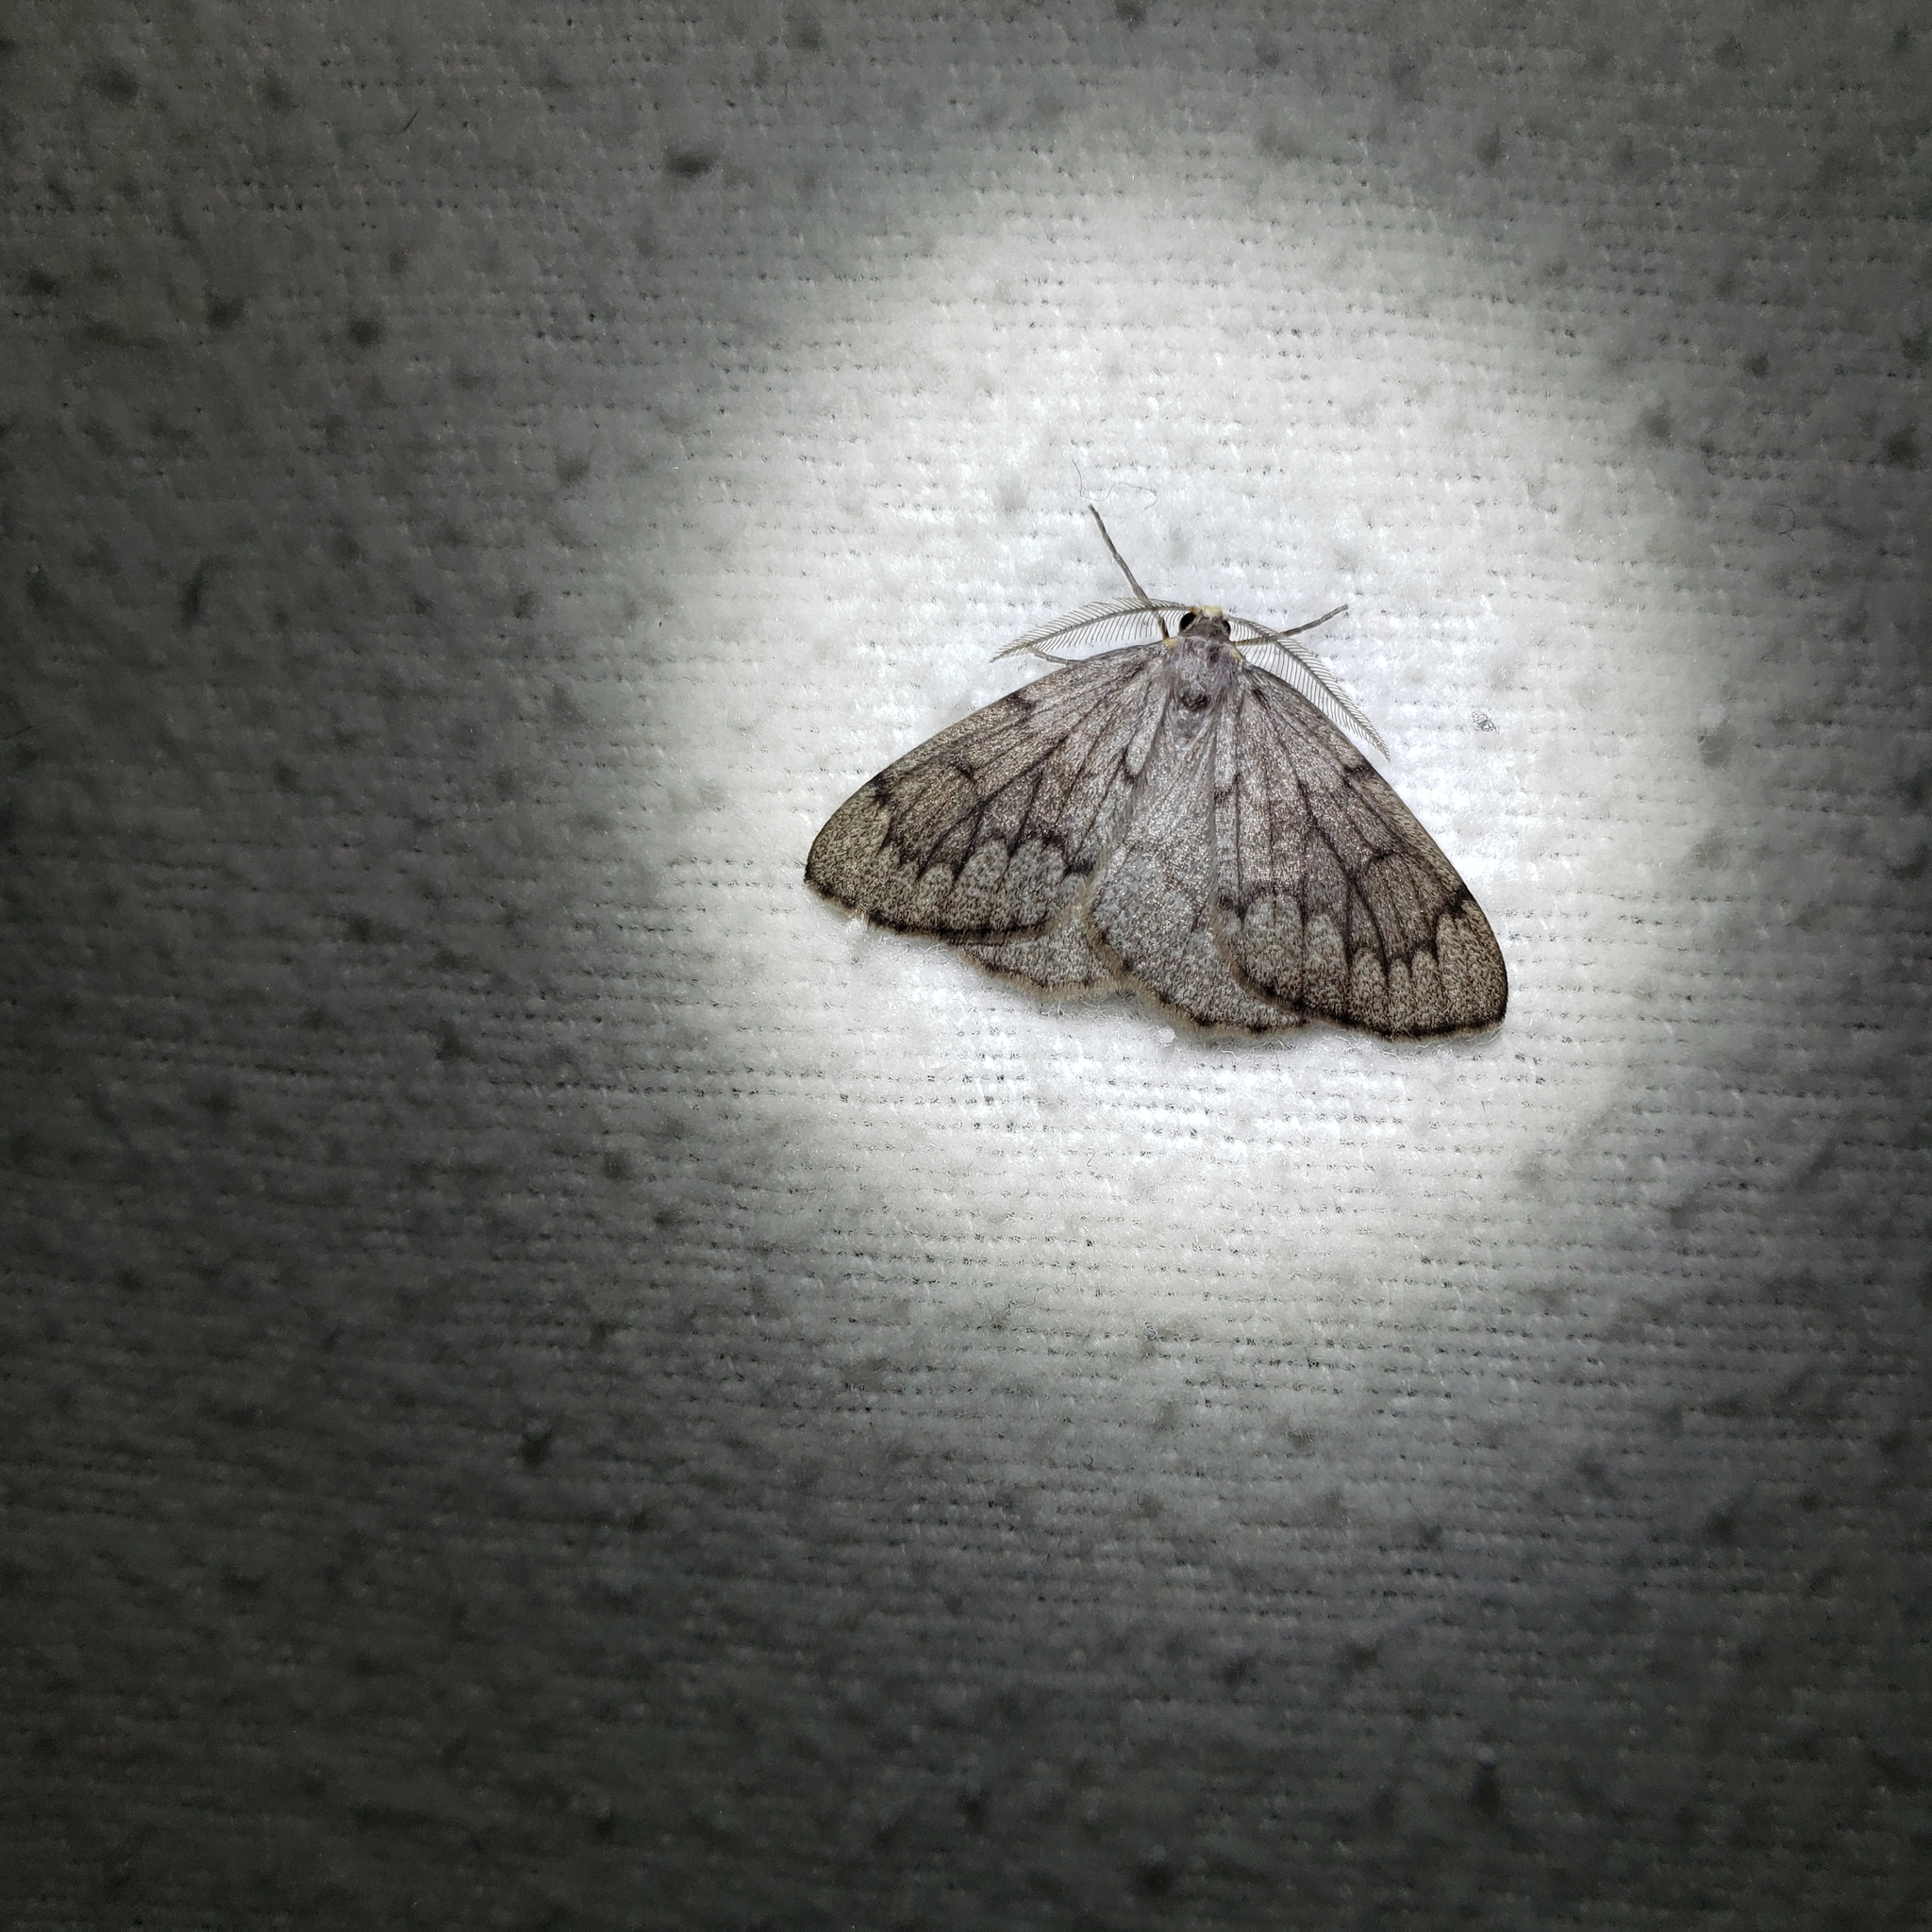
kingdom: Animalia
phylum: Arthropoda
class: Insecta
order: Lepidoptera
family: Geometridae
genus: Nepytia
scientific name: Nepytia canosaria
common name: False hemlock looper
